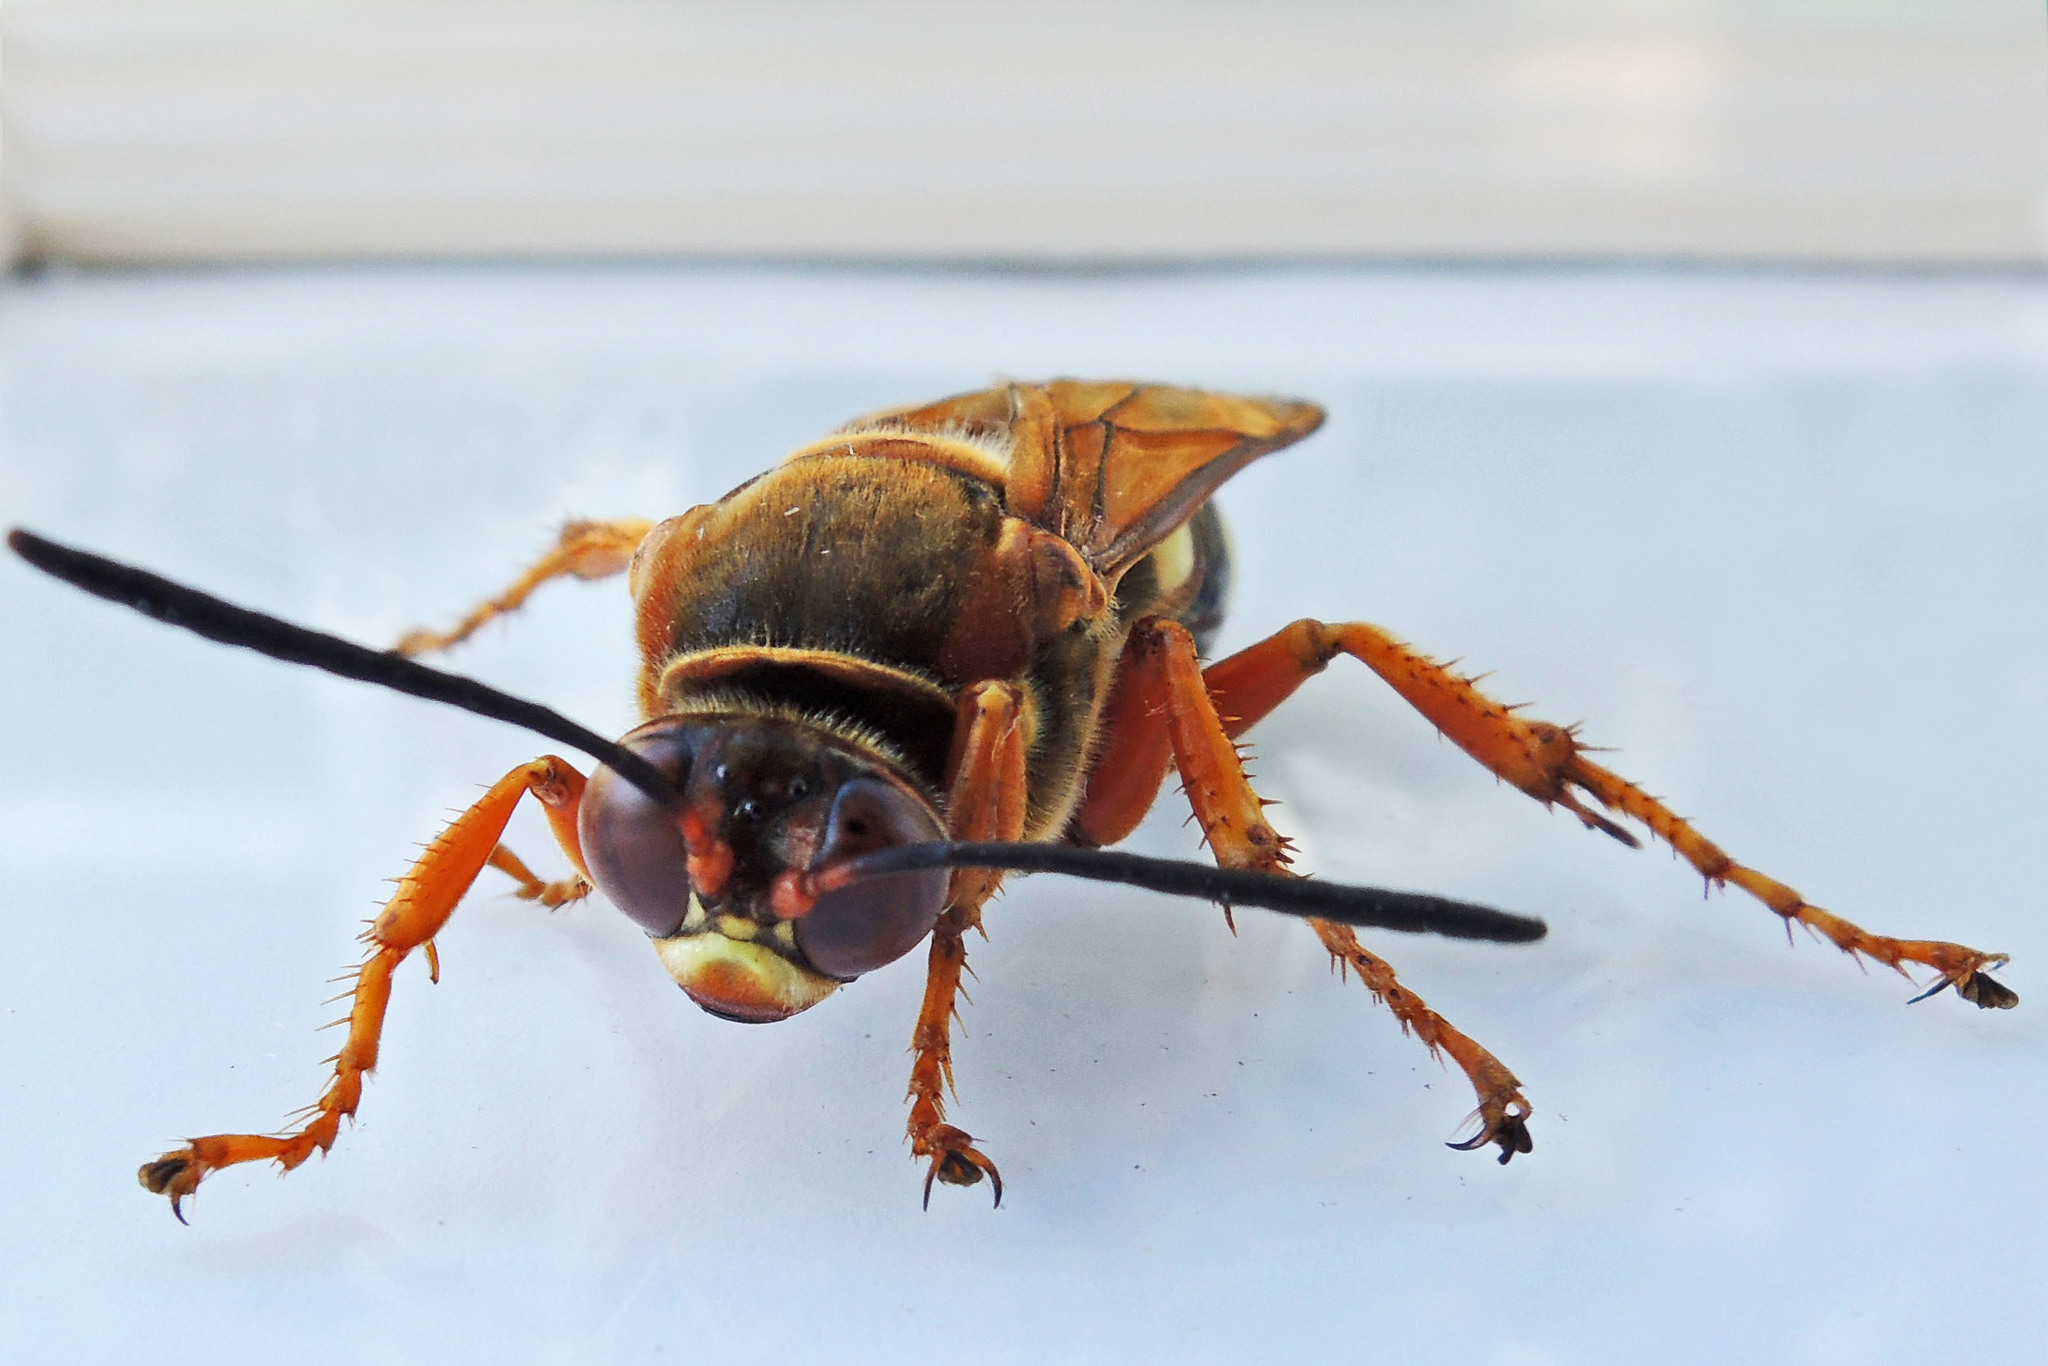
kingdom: Animalia
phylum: Arthropoda
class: Insecta
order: Hymenoptera
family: Crabronidae
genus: Sphecius
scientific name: Sphecius speciosus
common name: Cicada killer
